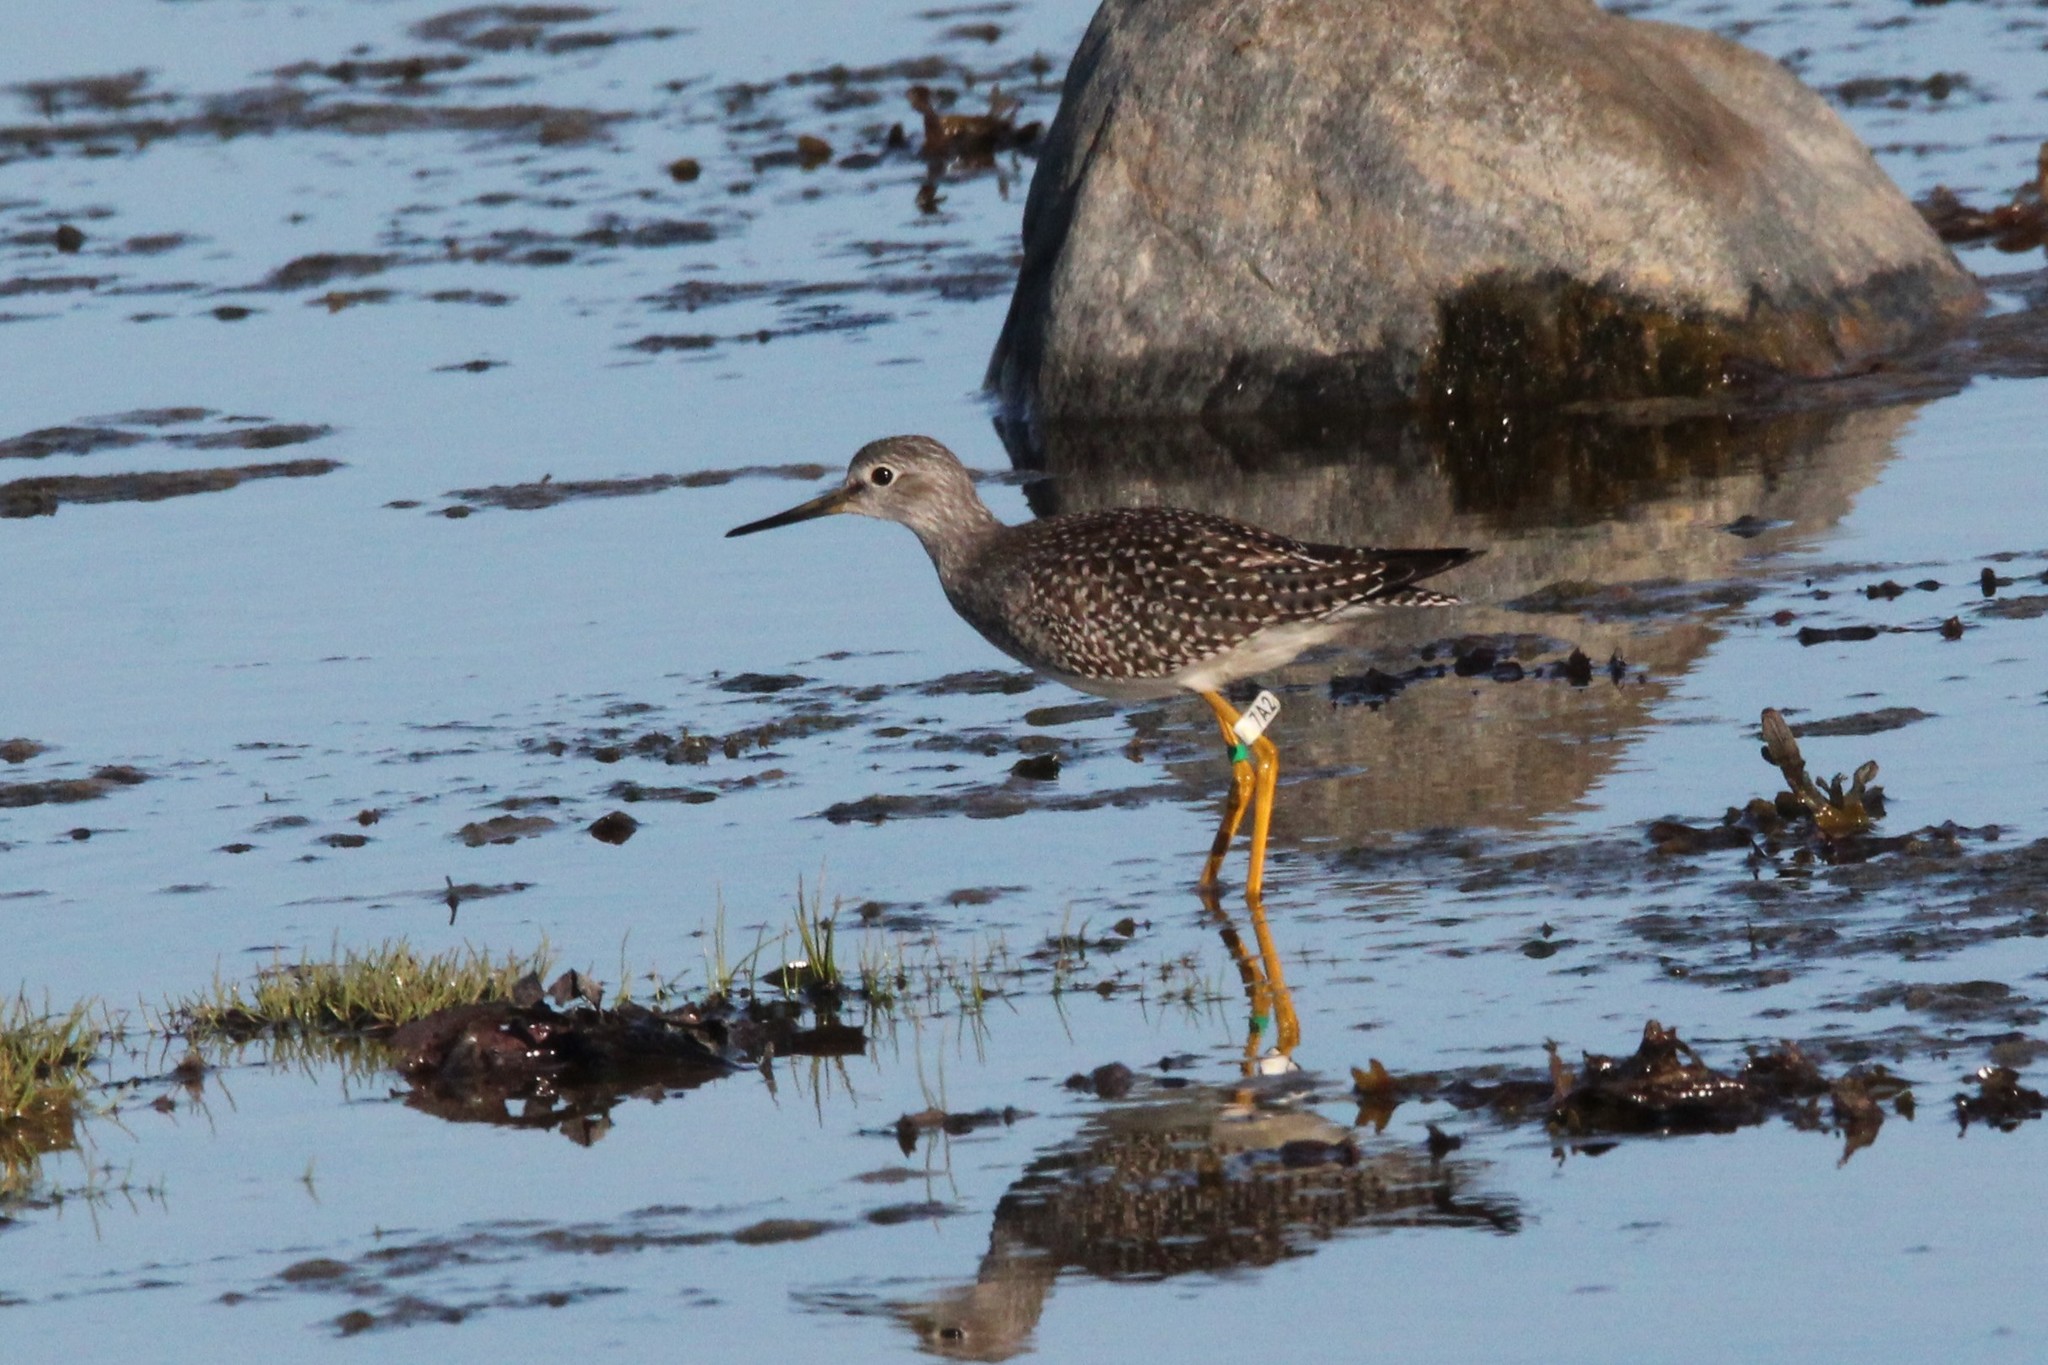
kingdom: Animalia
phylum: Chordata
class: Aves
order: Charadriiformes
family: Scolopacidae
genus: Tringa
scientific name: Tringa flavipes
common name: Lesser yellowlegs
